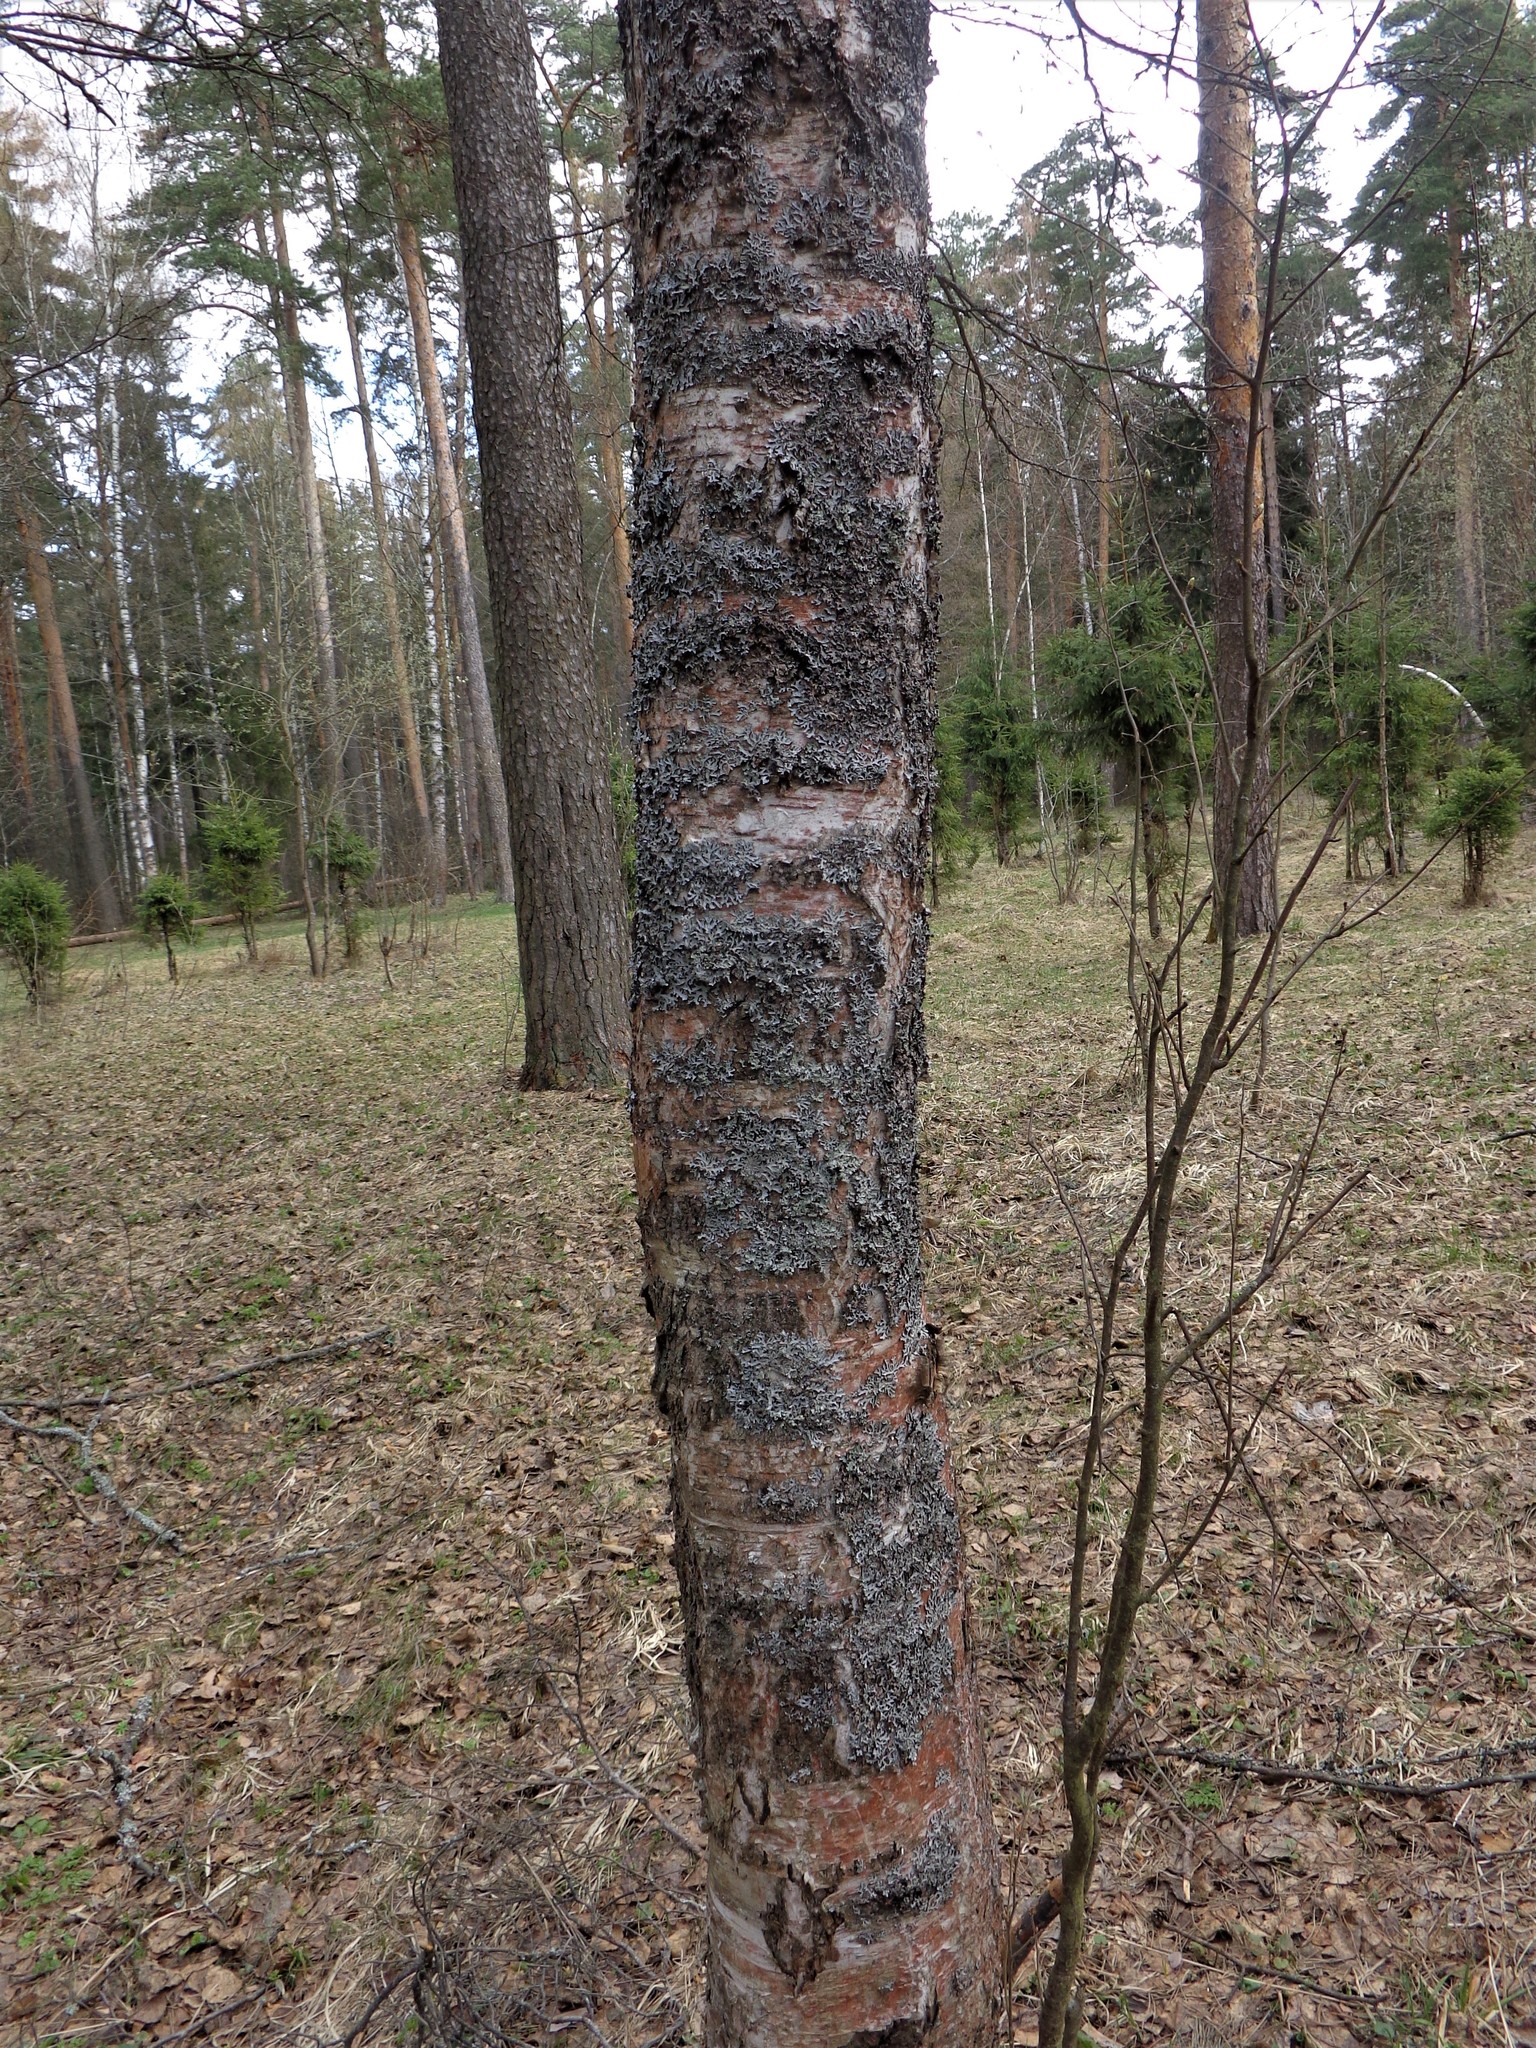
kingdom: Fungi
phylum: Ascomycota
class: Lecanoromycetes
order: Lecanorales
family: Parmeliaceae
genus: Parmelia
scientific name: Parmelia sulcata
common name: Netted shield lichen
